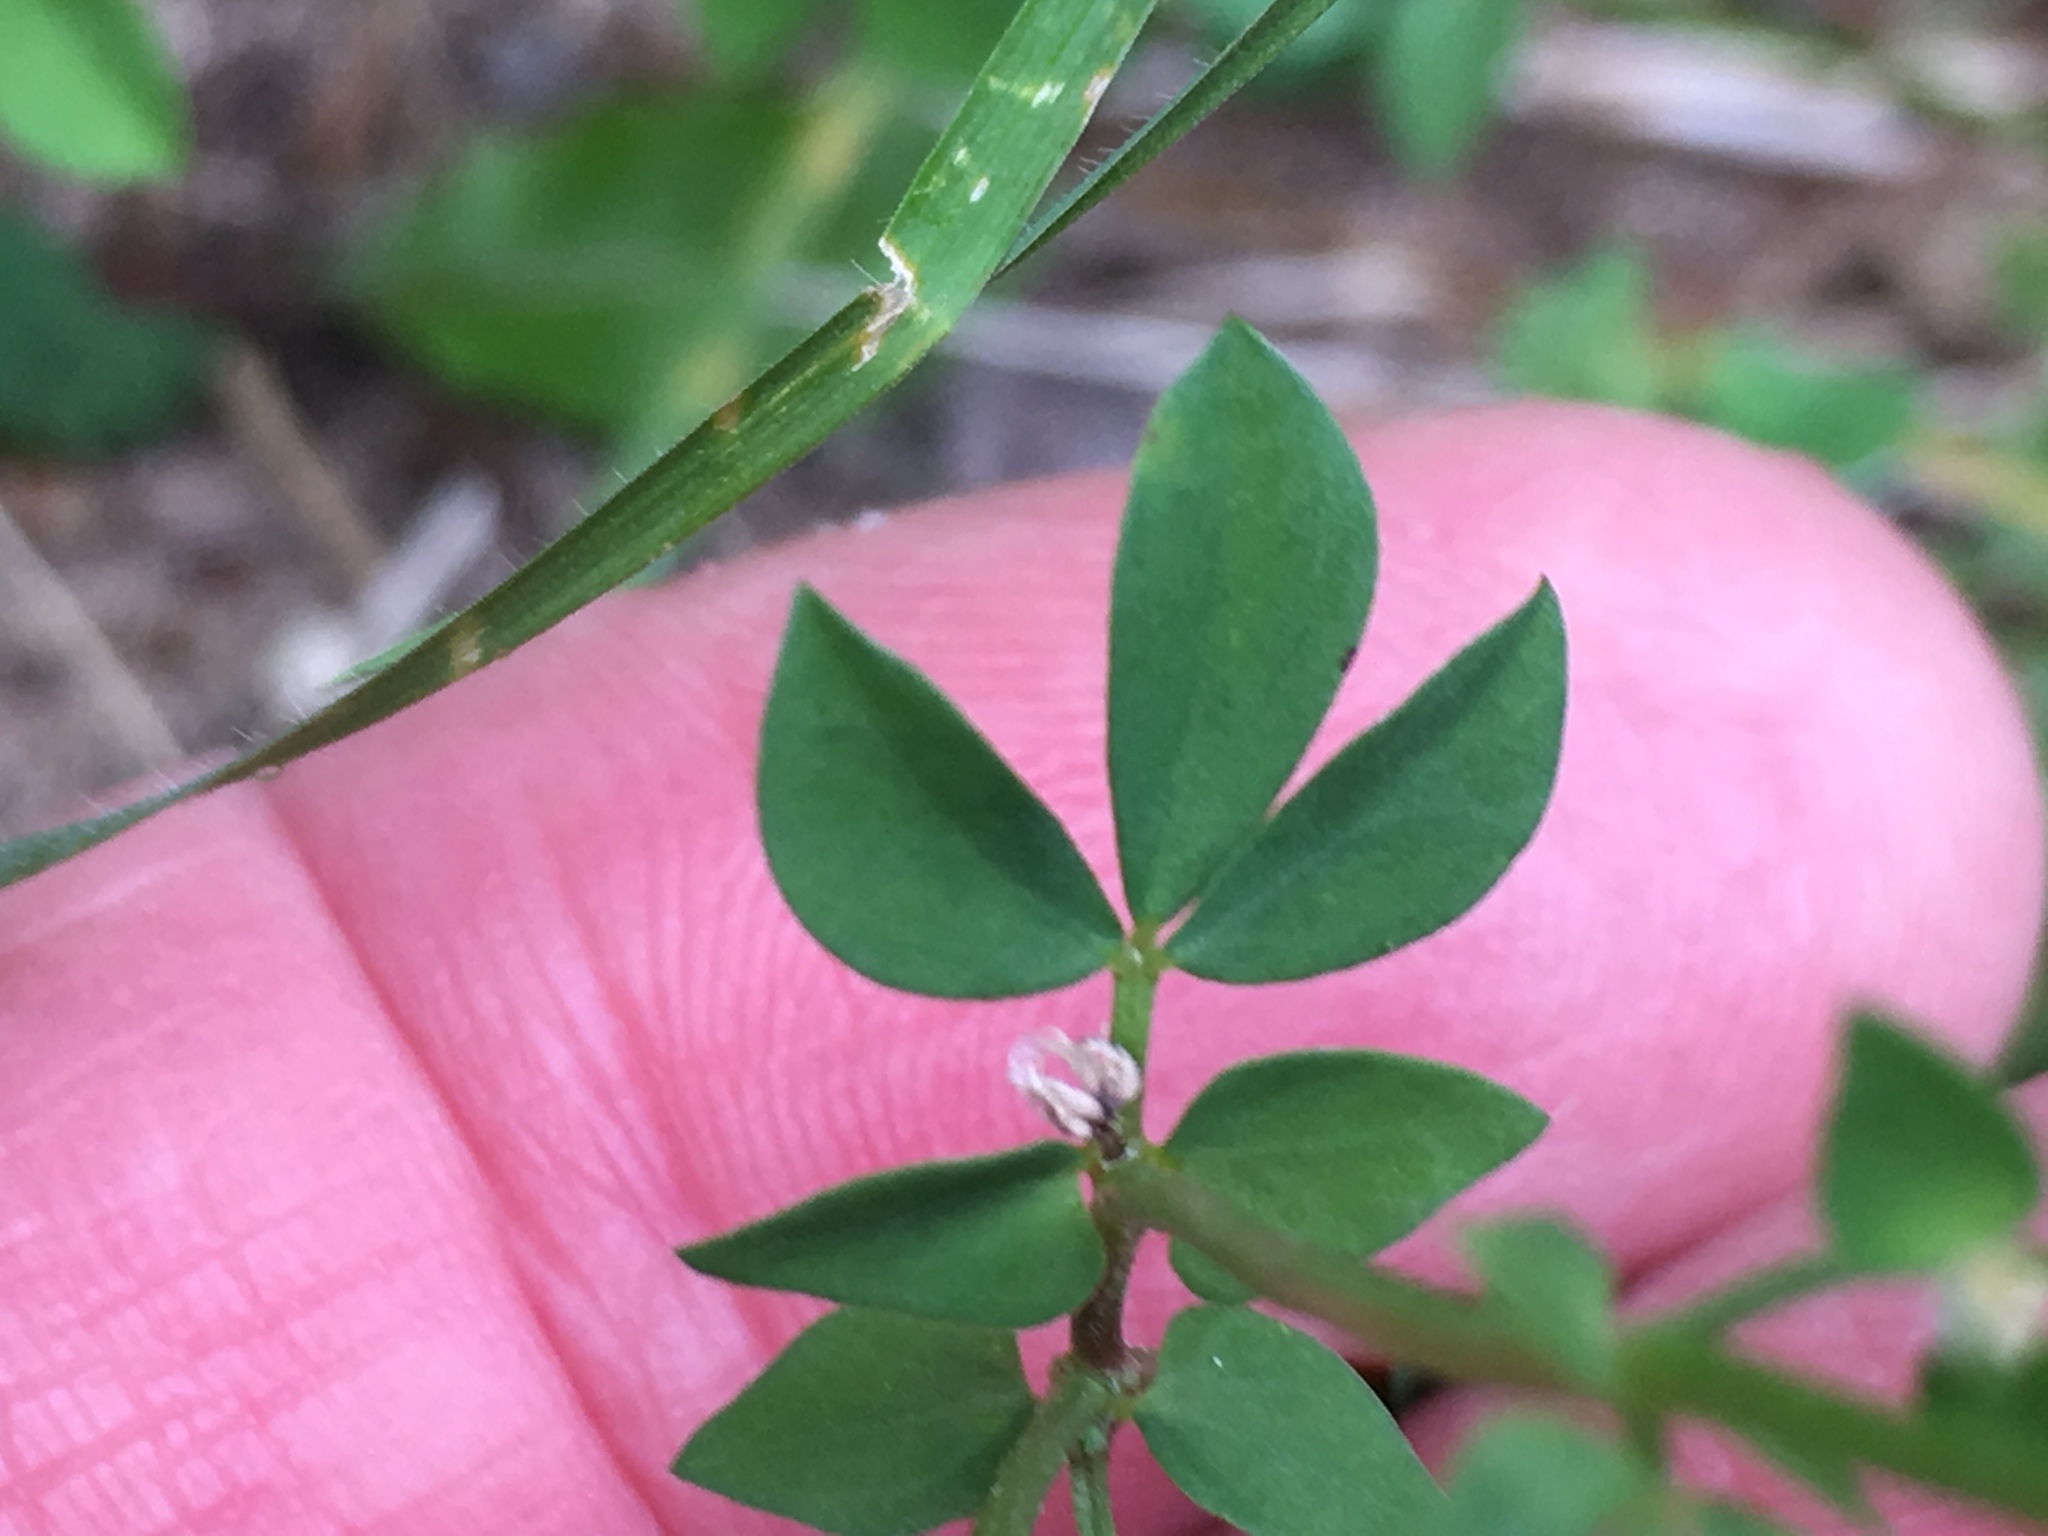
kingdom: Plantae
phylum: Tracheophyta
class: Magnoliopsida
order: Fabales
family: Fabaceae
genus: Lotus
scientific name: Lotus corniculatus
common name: Common bird's-foot-trefoil
